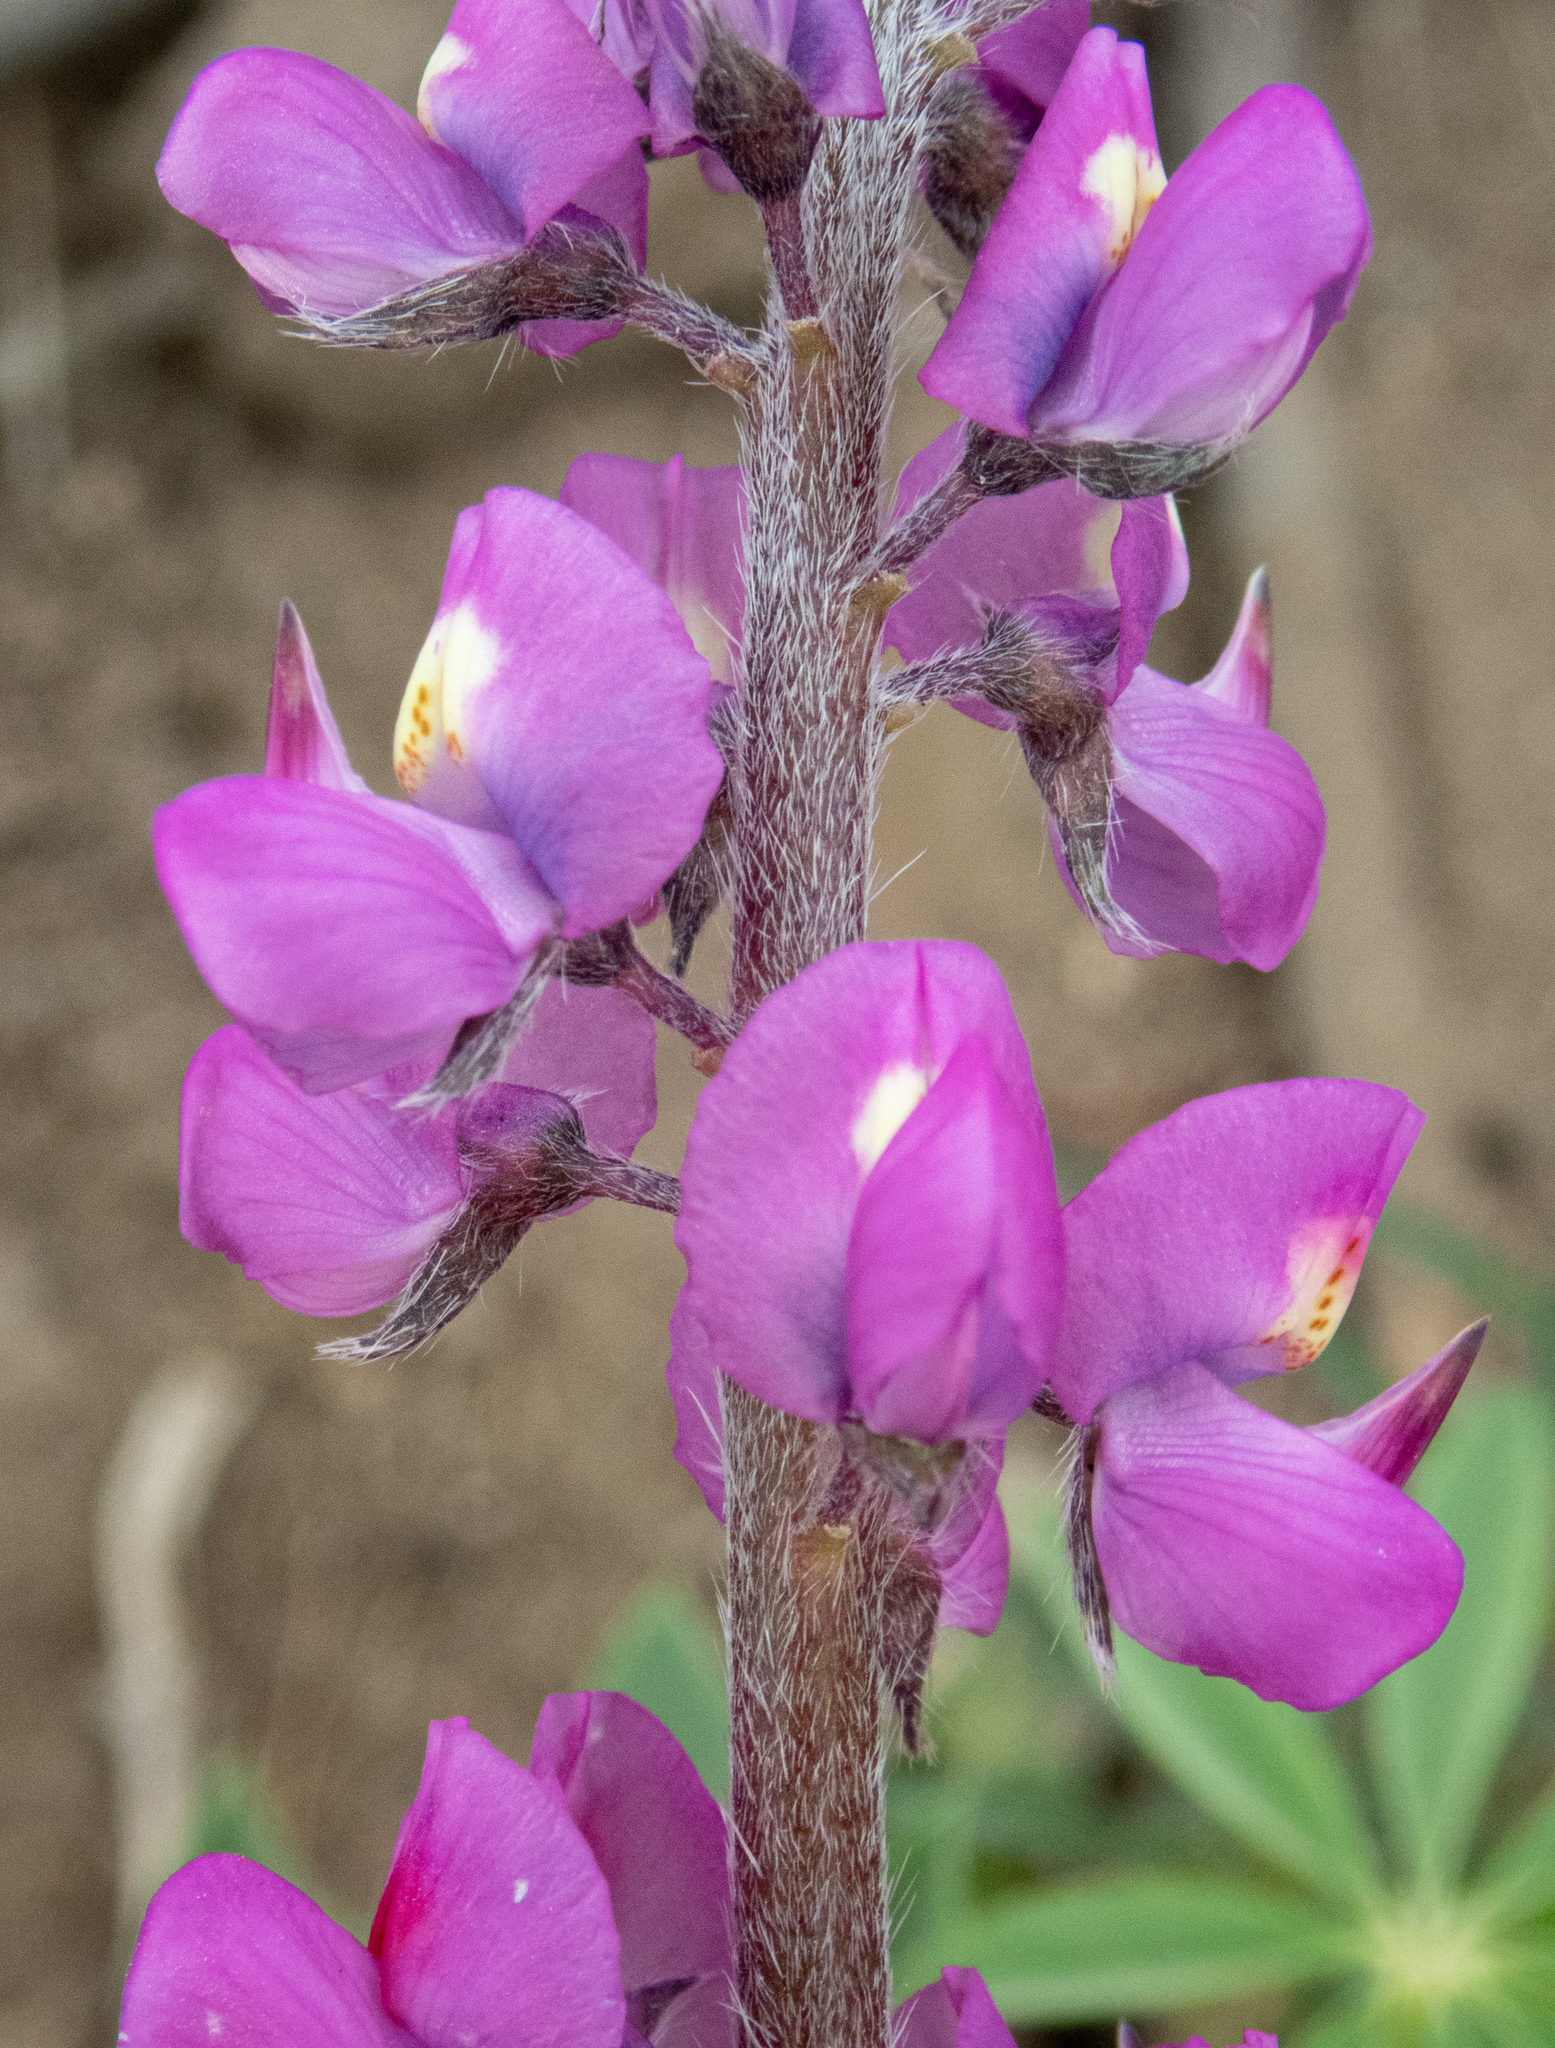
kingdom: Plantae
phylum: Tracheophyta
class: Magnoliopsida
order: Fabales
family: Fabaceae
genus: Lupinus
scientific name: Lupinus arizonicus
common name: Arizona lupine
